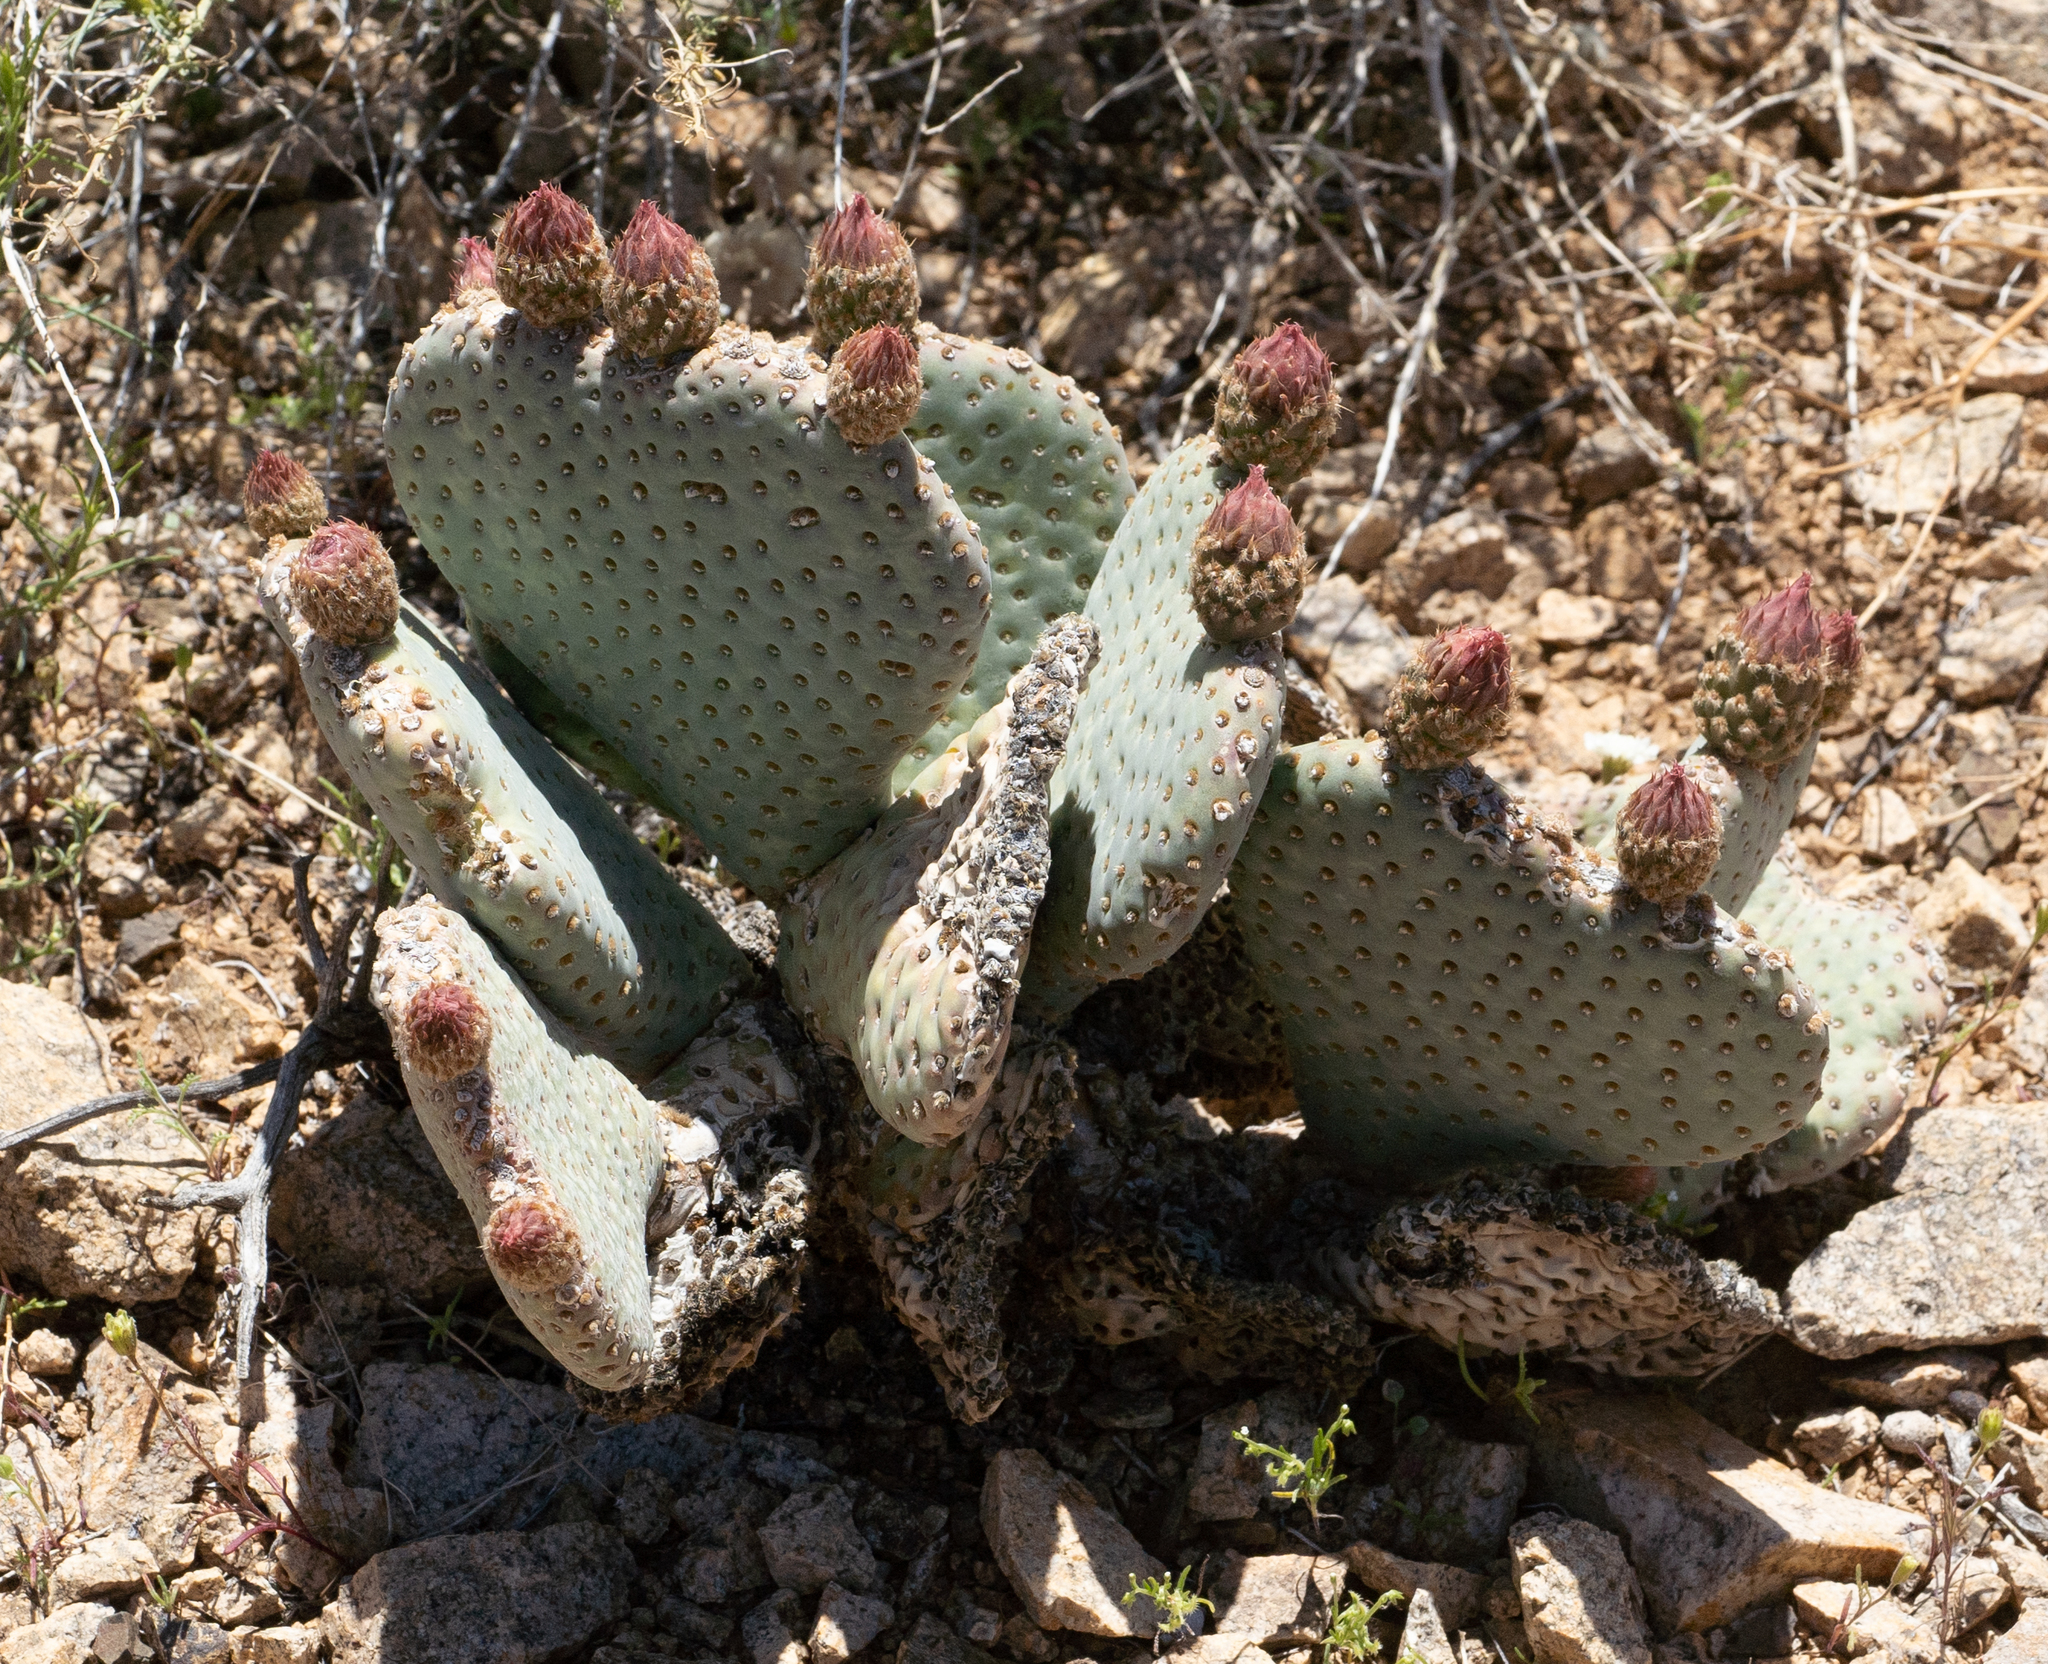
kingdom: Plantae
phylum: Tracheophyta
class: Magnoliopsida
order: Caryophyllales
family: Cactaceae
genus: Opuntia
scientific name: Opuntia basilaris
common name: Beavertail prickly-pear
